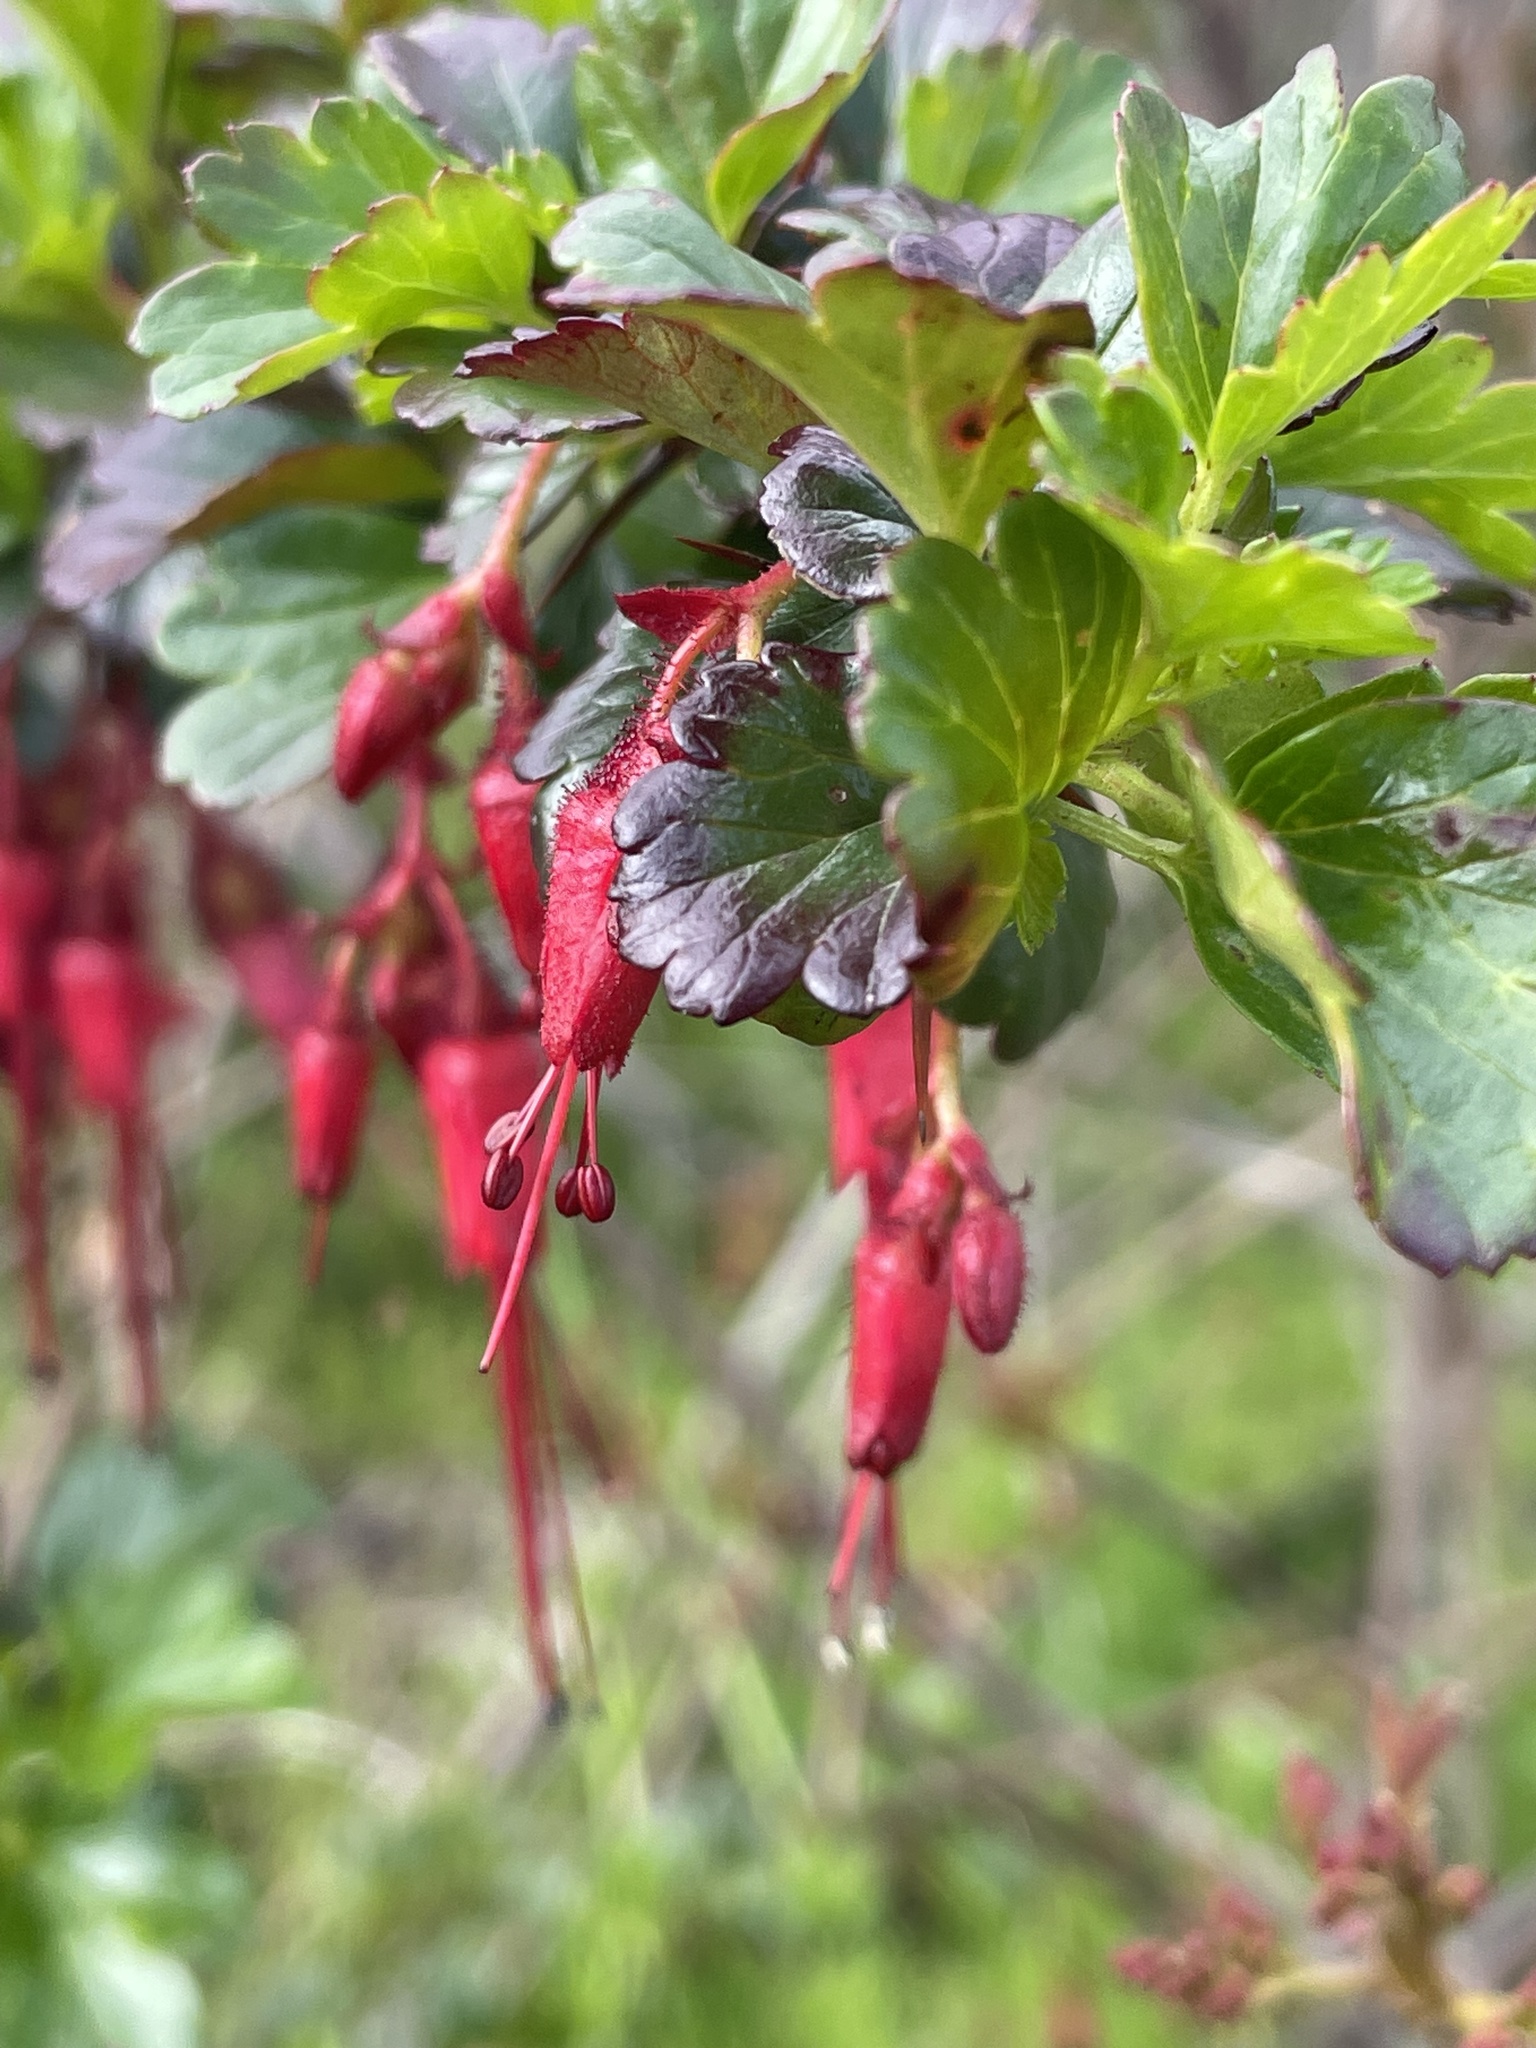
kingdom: Plantae
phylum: Tracheophyta
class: Magnoliopsida
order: Saxifragales
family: Grossulariaceae
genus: Ribes
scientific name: Ribes speciosum
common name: Fuchsia-flower gooseberry
